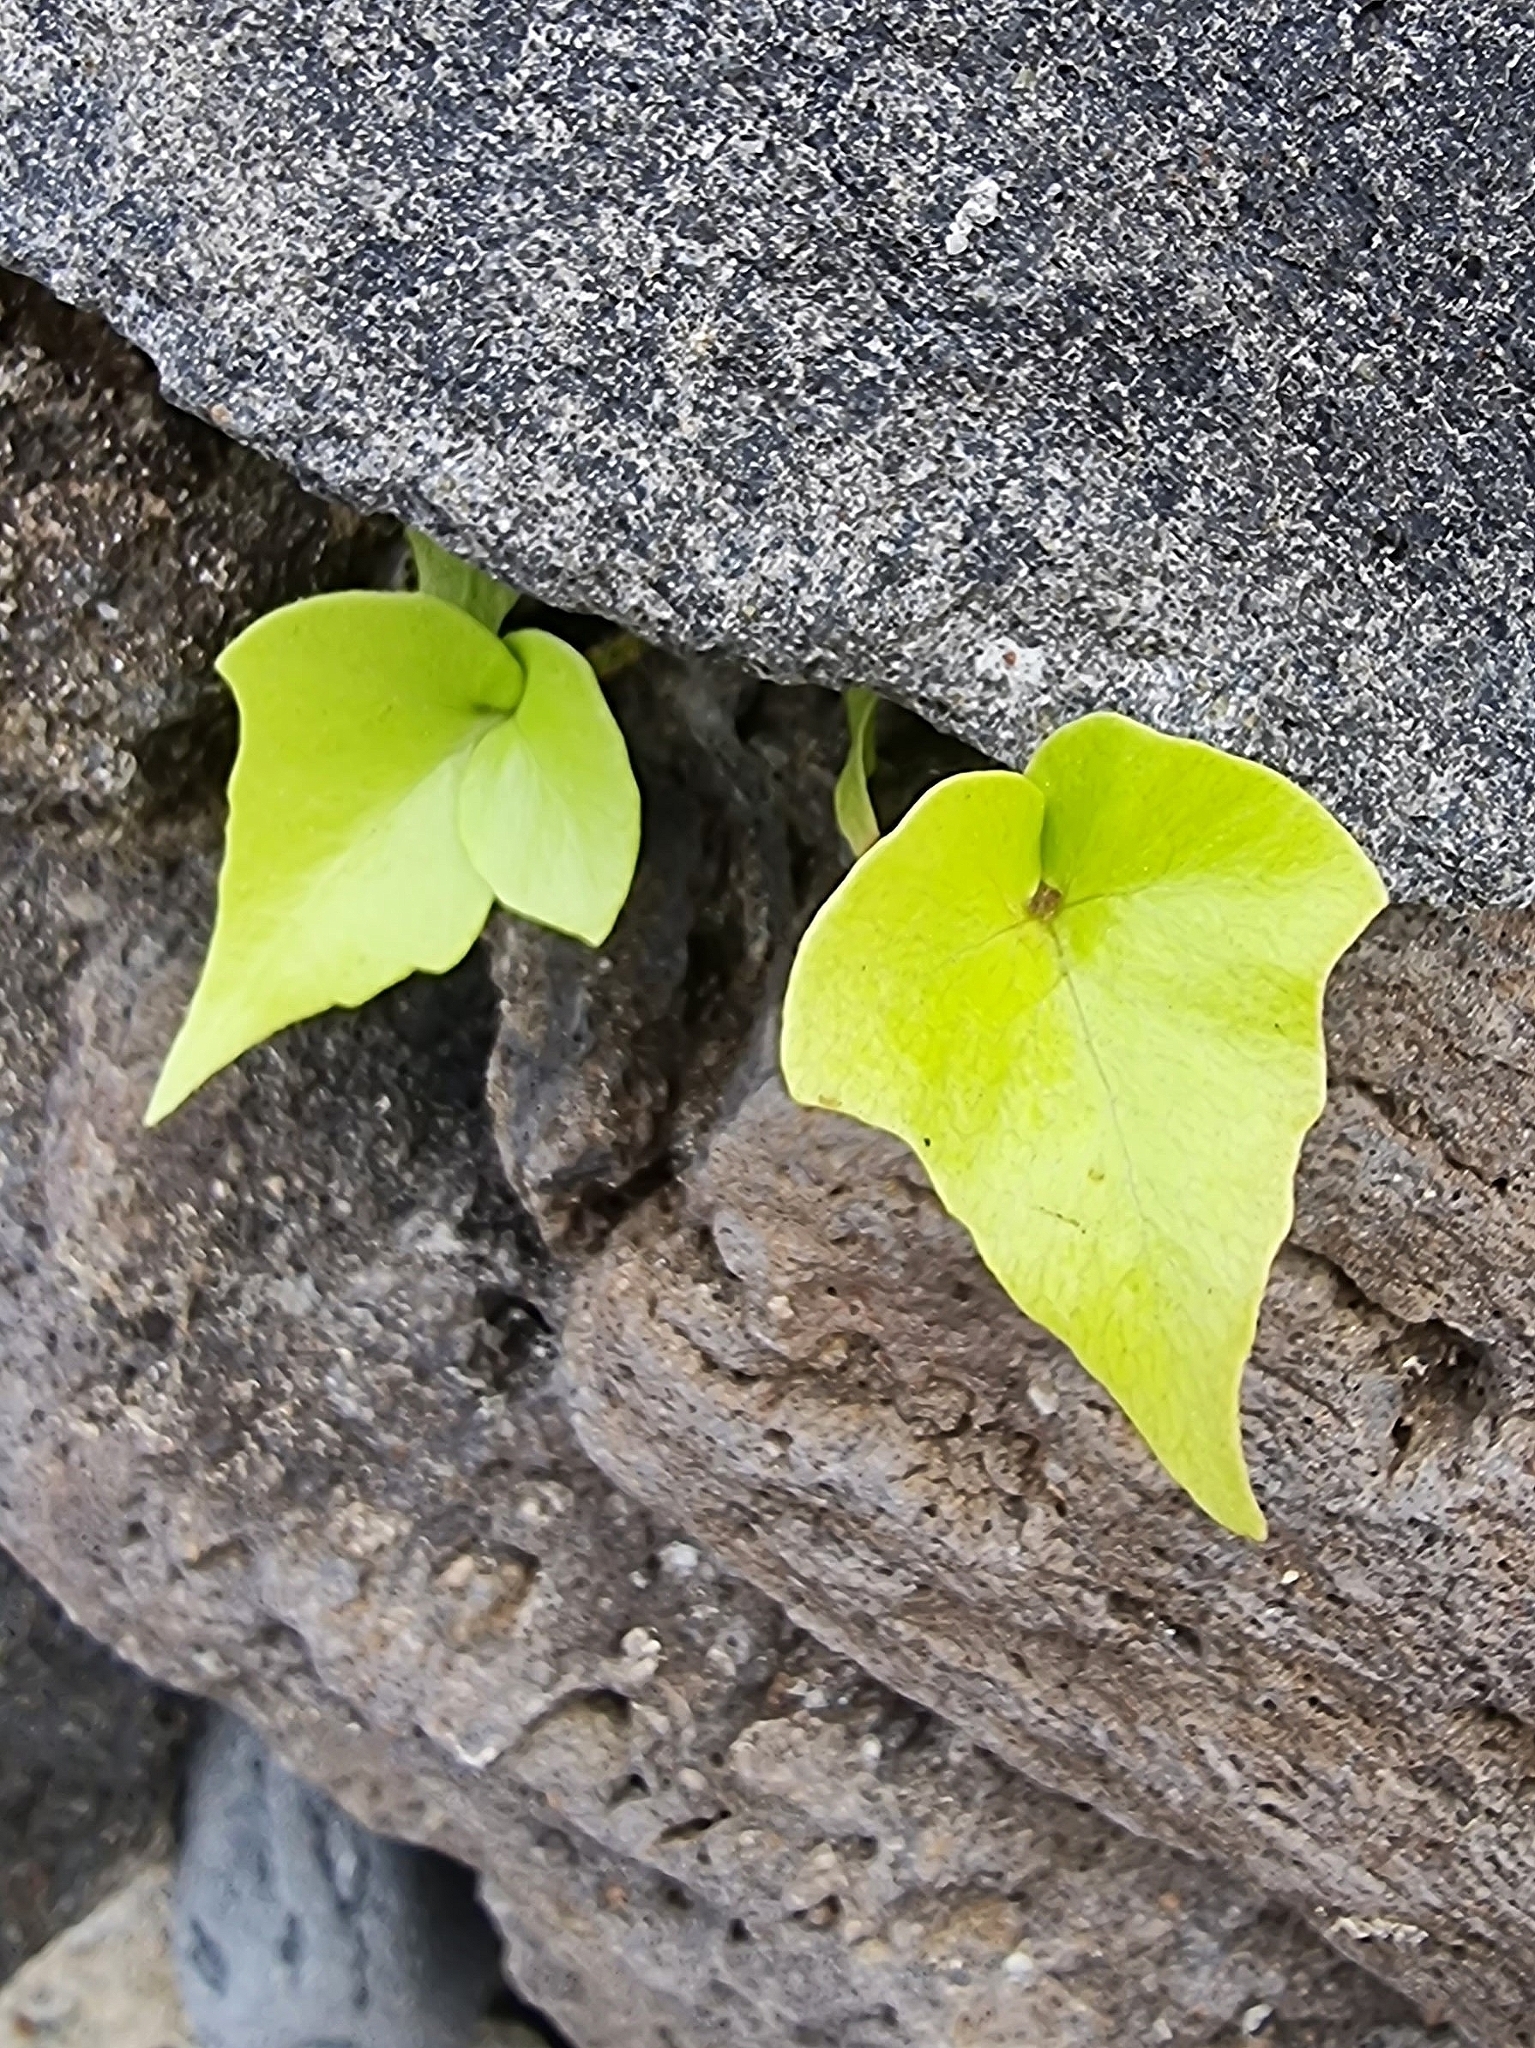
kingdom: Plantae
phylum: Tracheophyta
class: Polypodiopsida
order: Polypodiales
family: Dryopteridaceae
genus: Cyrtomium
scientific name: Cyrtomium falcatum
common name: House holly-fern
